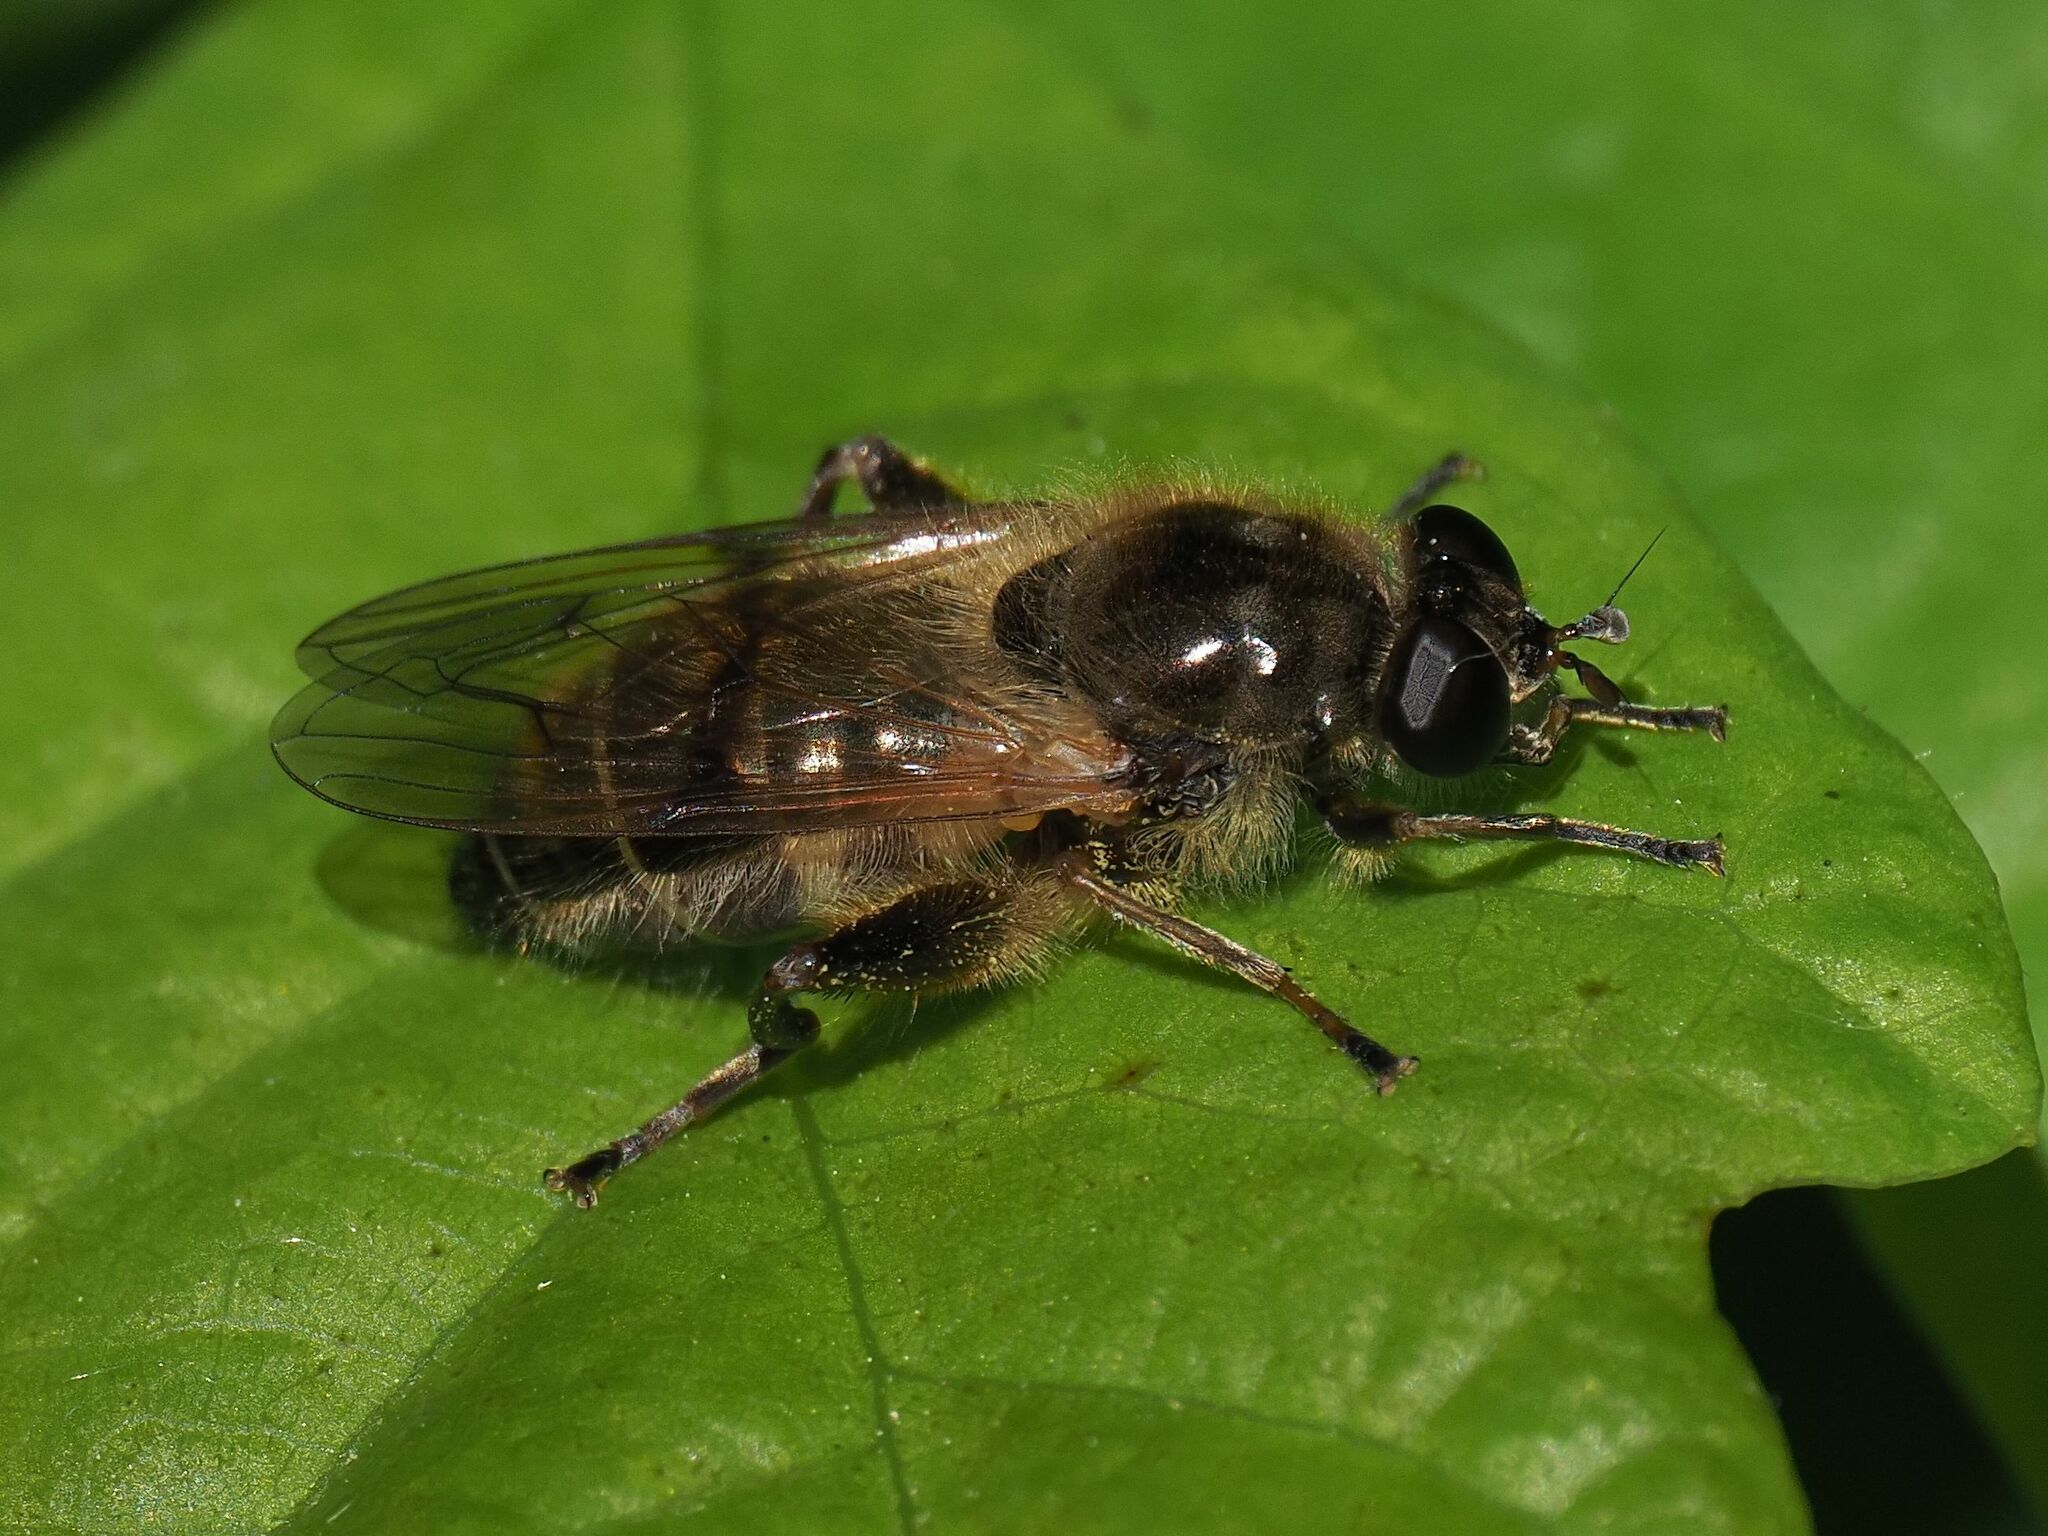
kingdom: Animalia
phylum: Arthropoda
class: Insecta
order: Diptera
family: Syrphidae
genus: Brachypalpus
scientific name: Brachypalpus valgus
